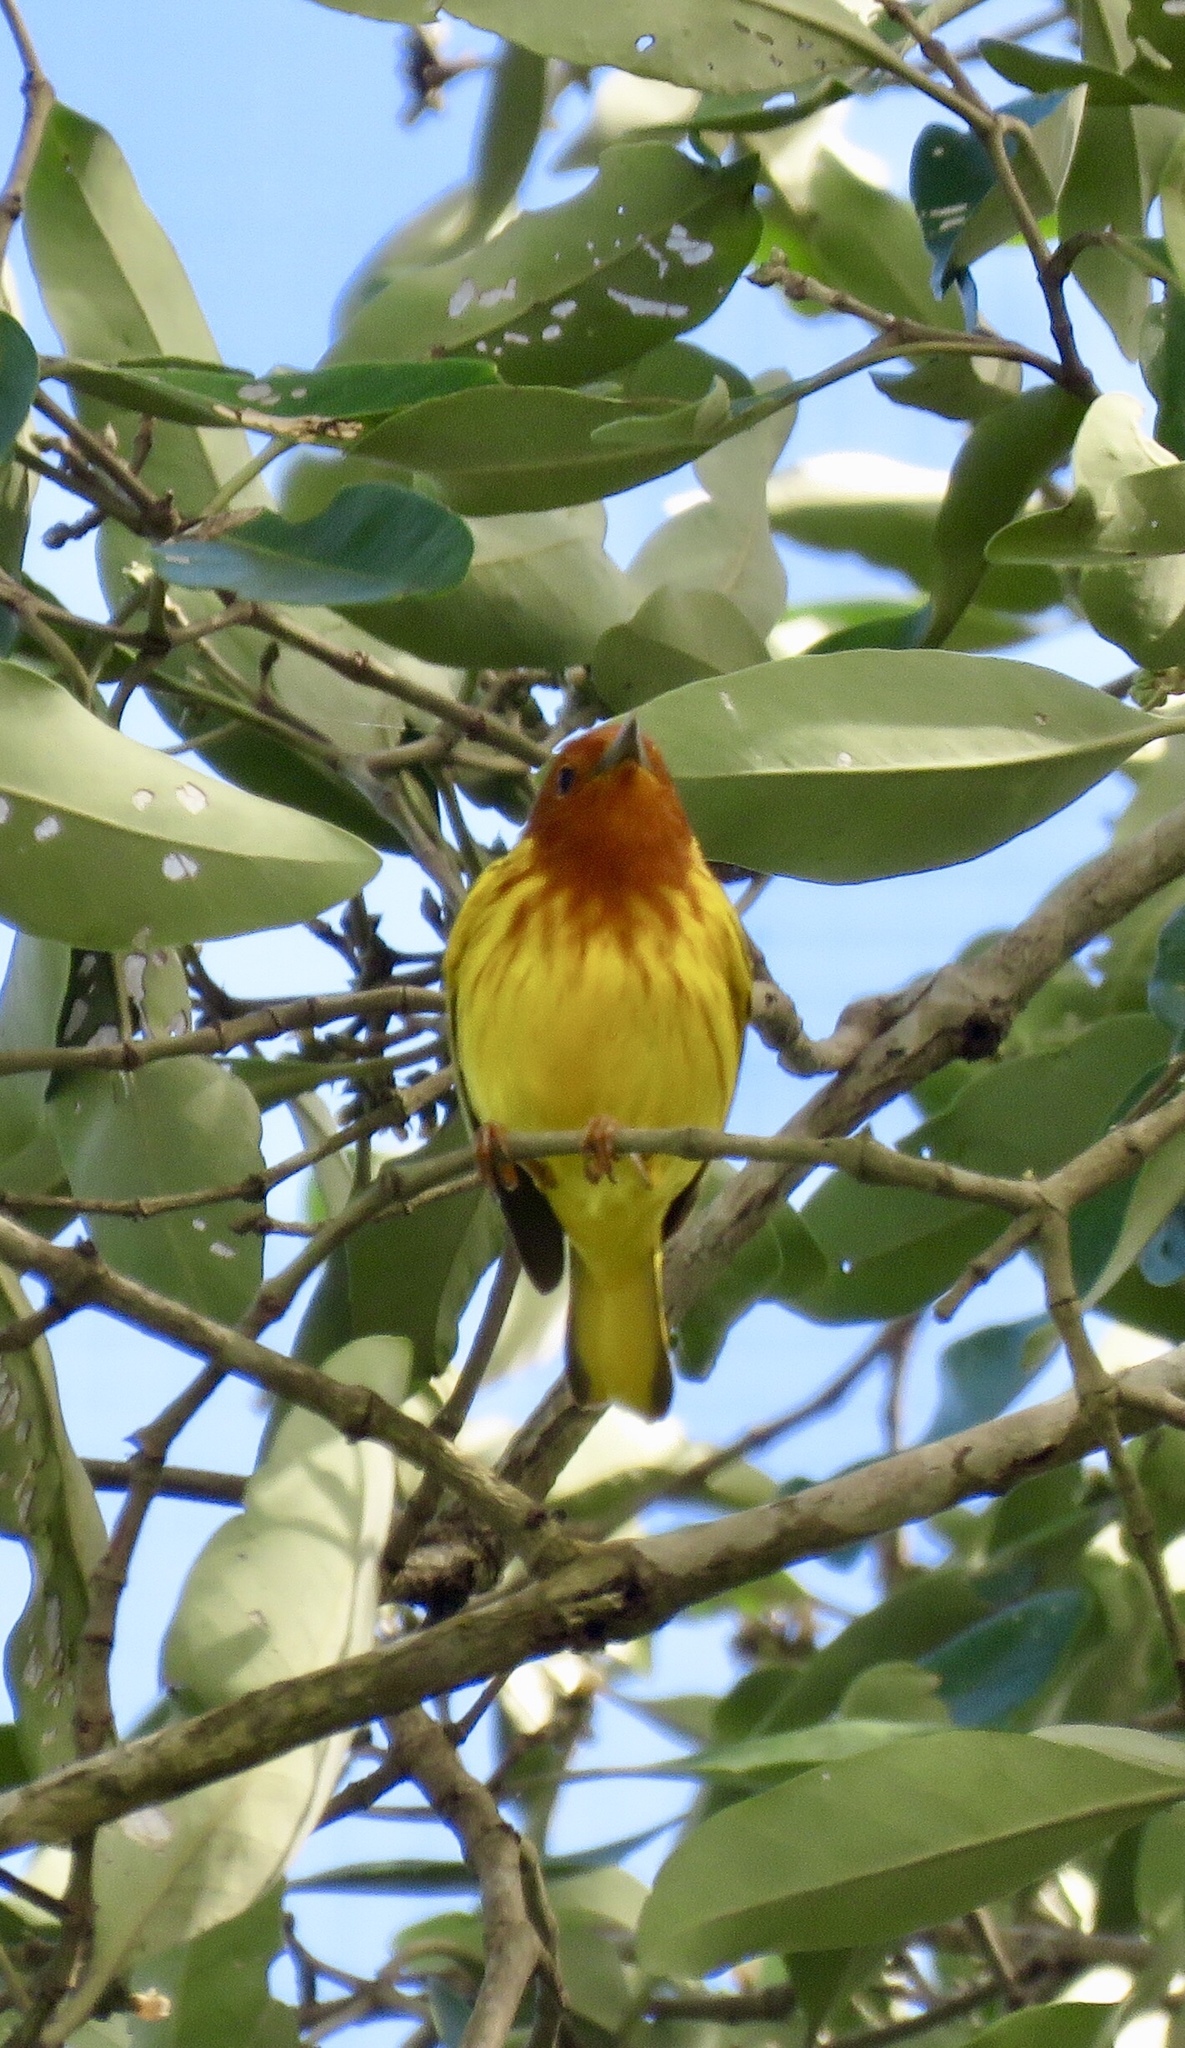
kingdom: Animalia
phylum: Chordata
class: Aves
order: Passeriformes
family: Parulidae
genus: Setophaga
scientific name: Setophaga petechia
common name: Yellow warbler
